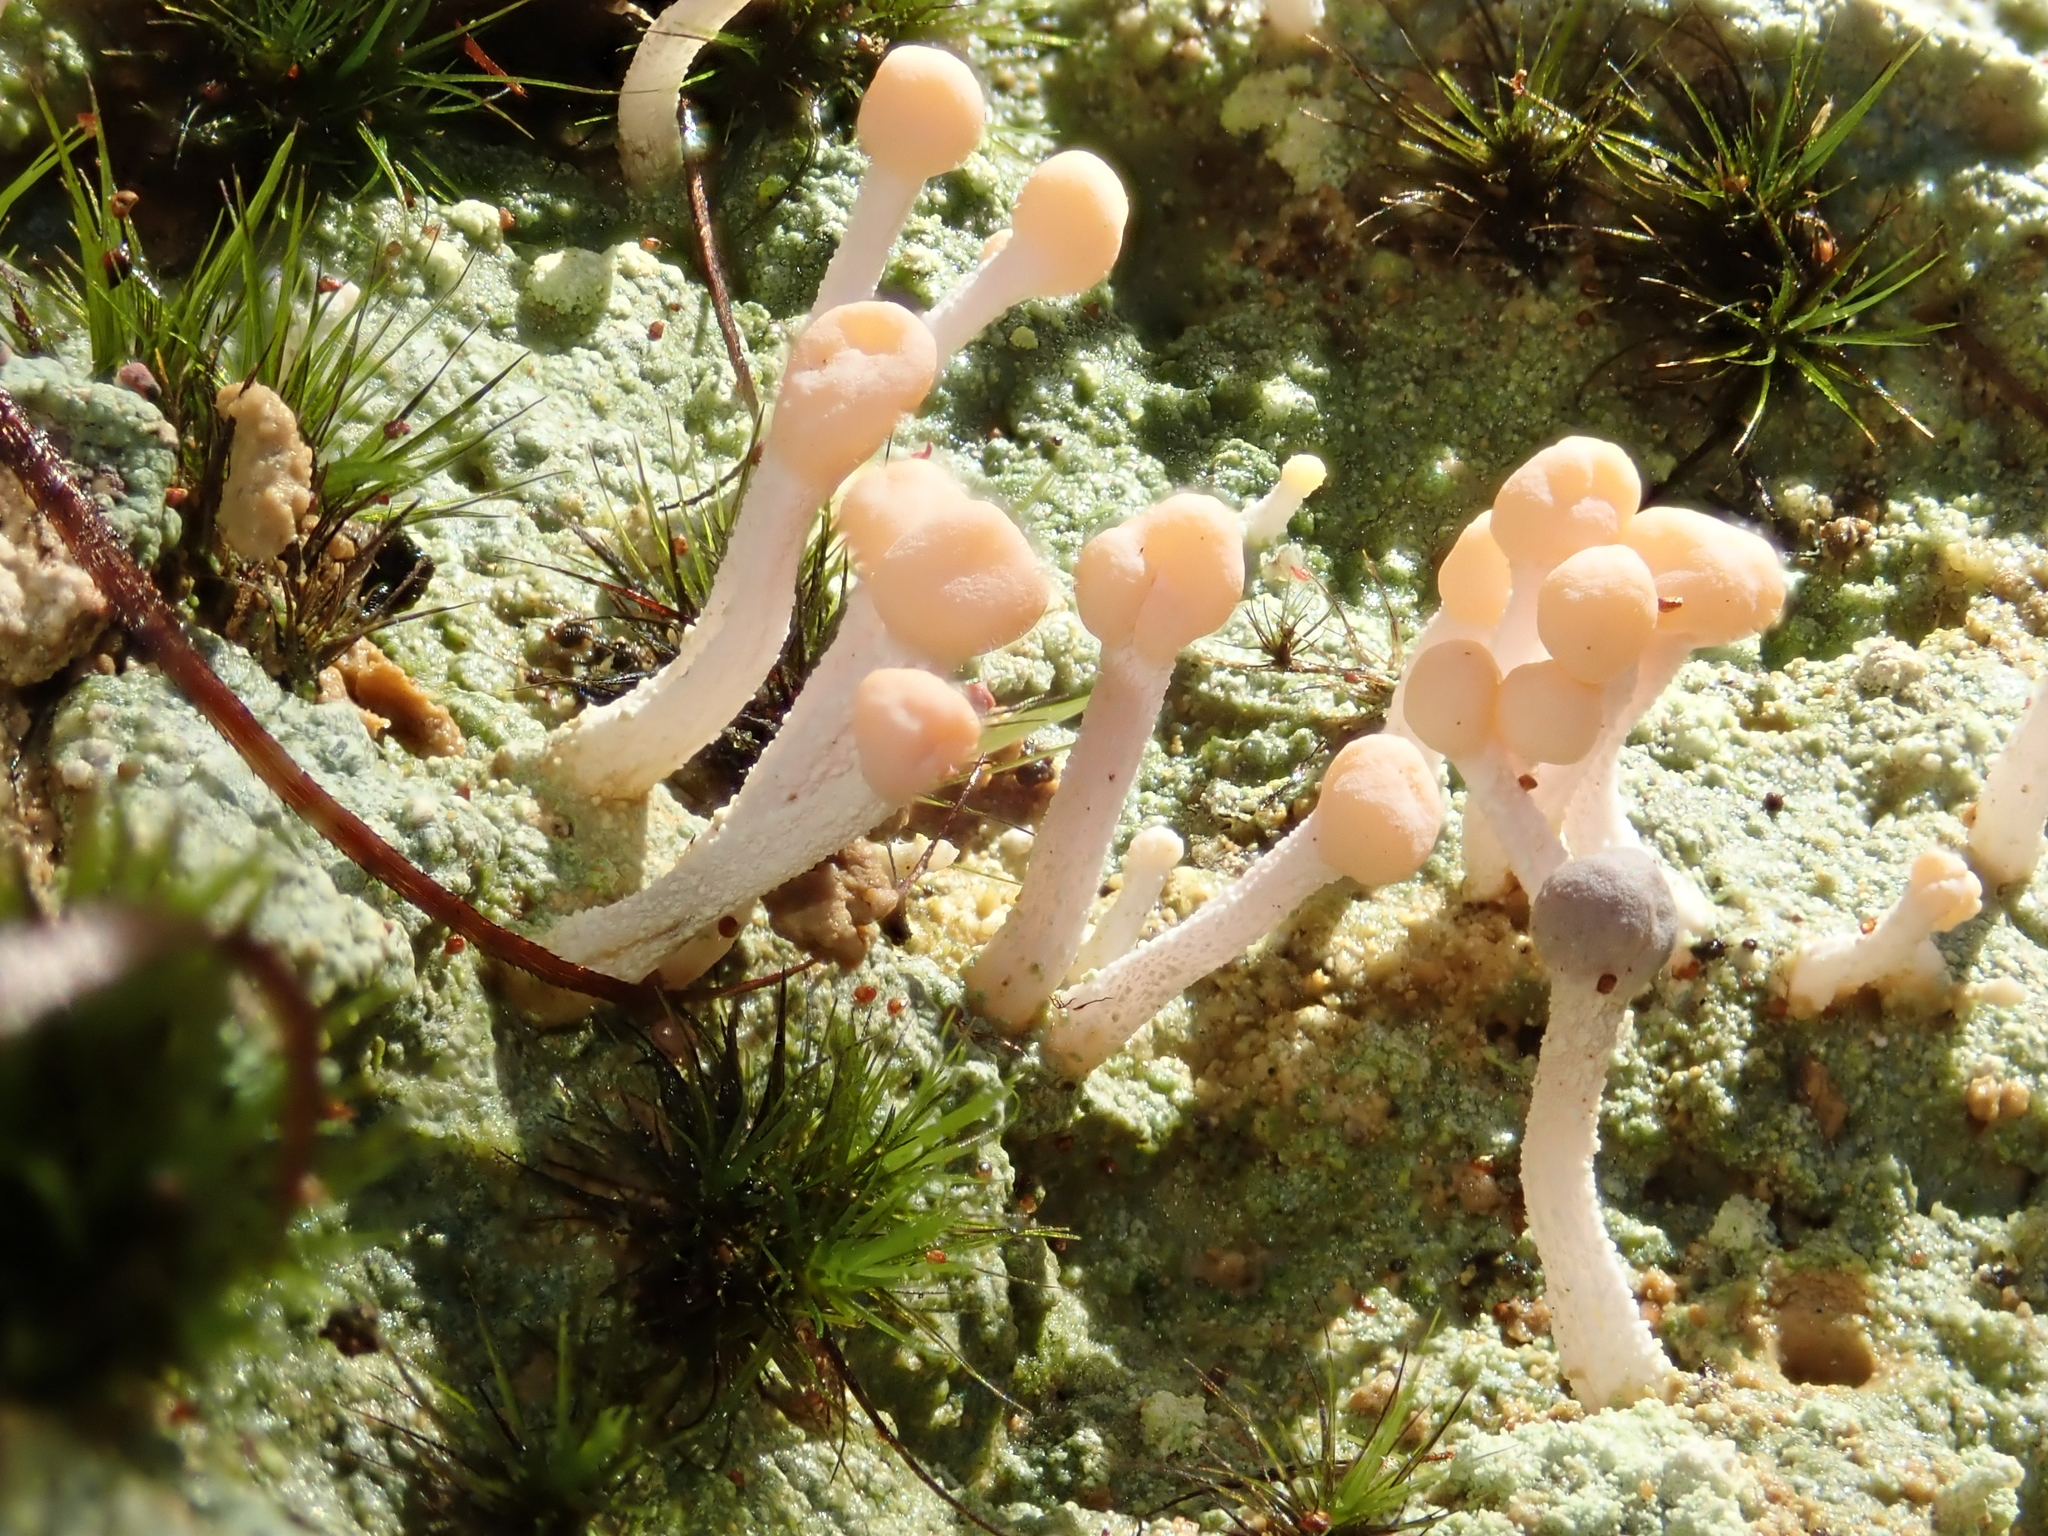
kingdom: Fungi
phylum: Ascomycota
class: Lecanoromycetes
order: Pertusariales
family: Icmadophilaceae
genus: Dibaeis
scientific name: Dibaeis arcuata
